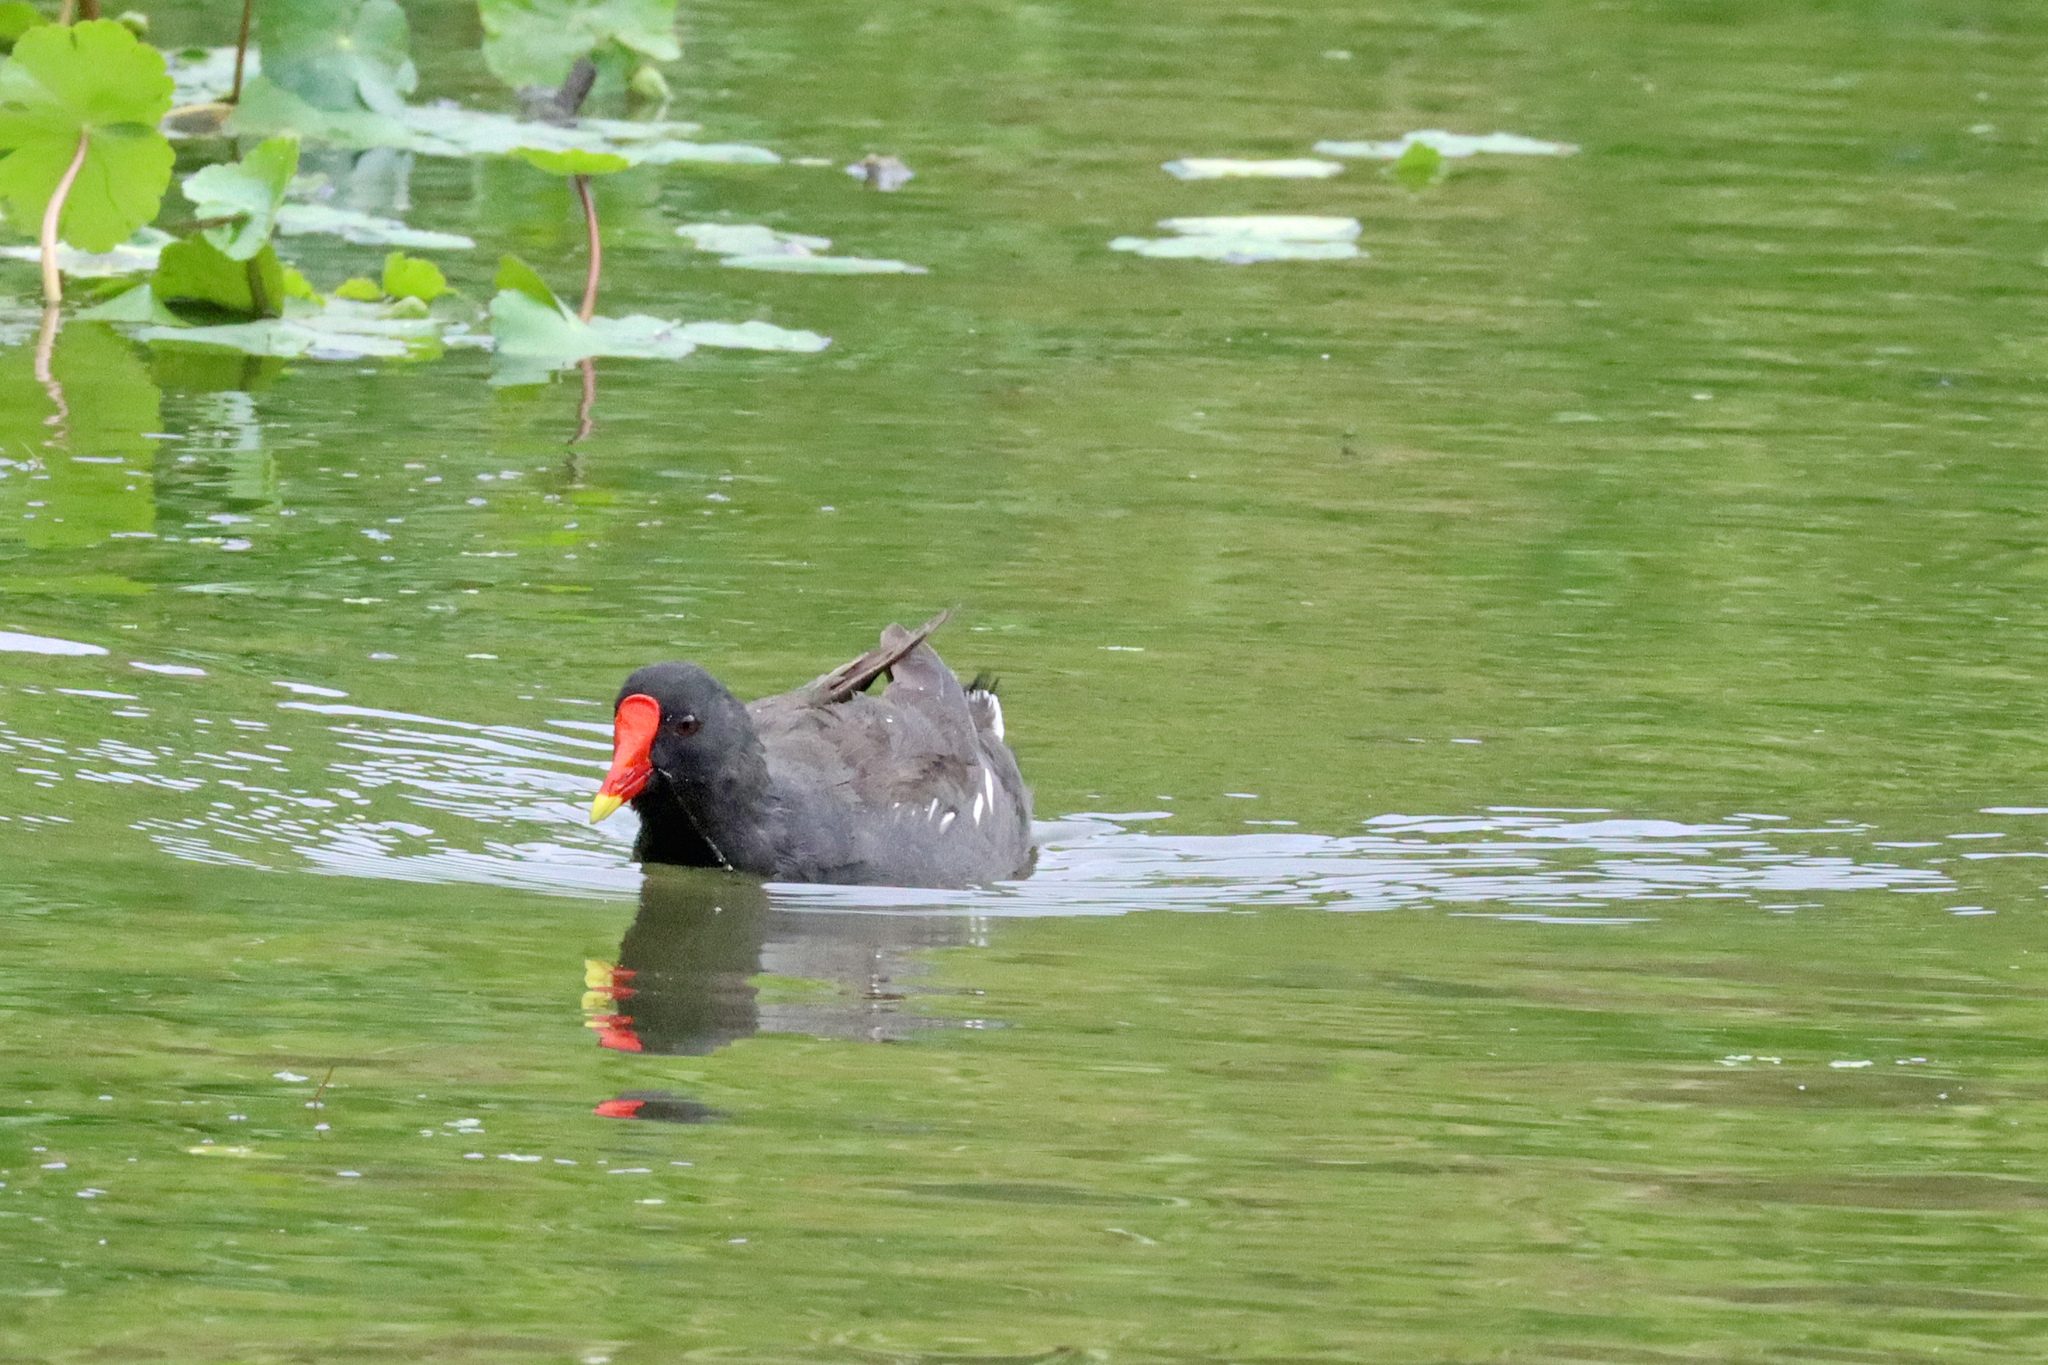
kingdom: Animalia
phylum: Chordata
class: Aves
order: Gruiformes
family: Rallidae
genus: Gallinula
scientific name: Gallinula chloropus
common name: Common moorhen
